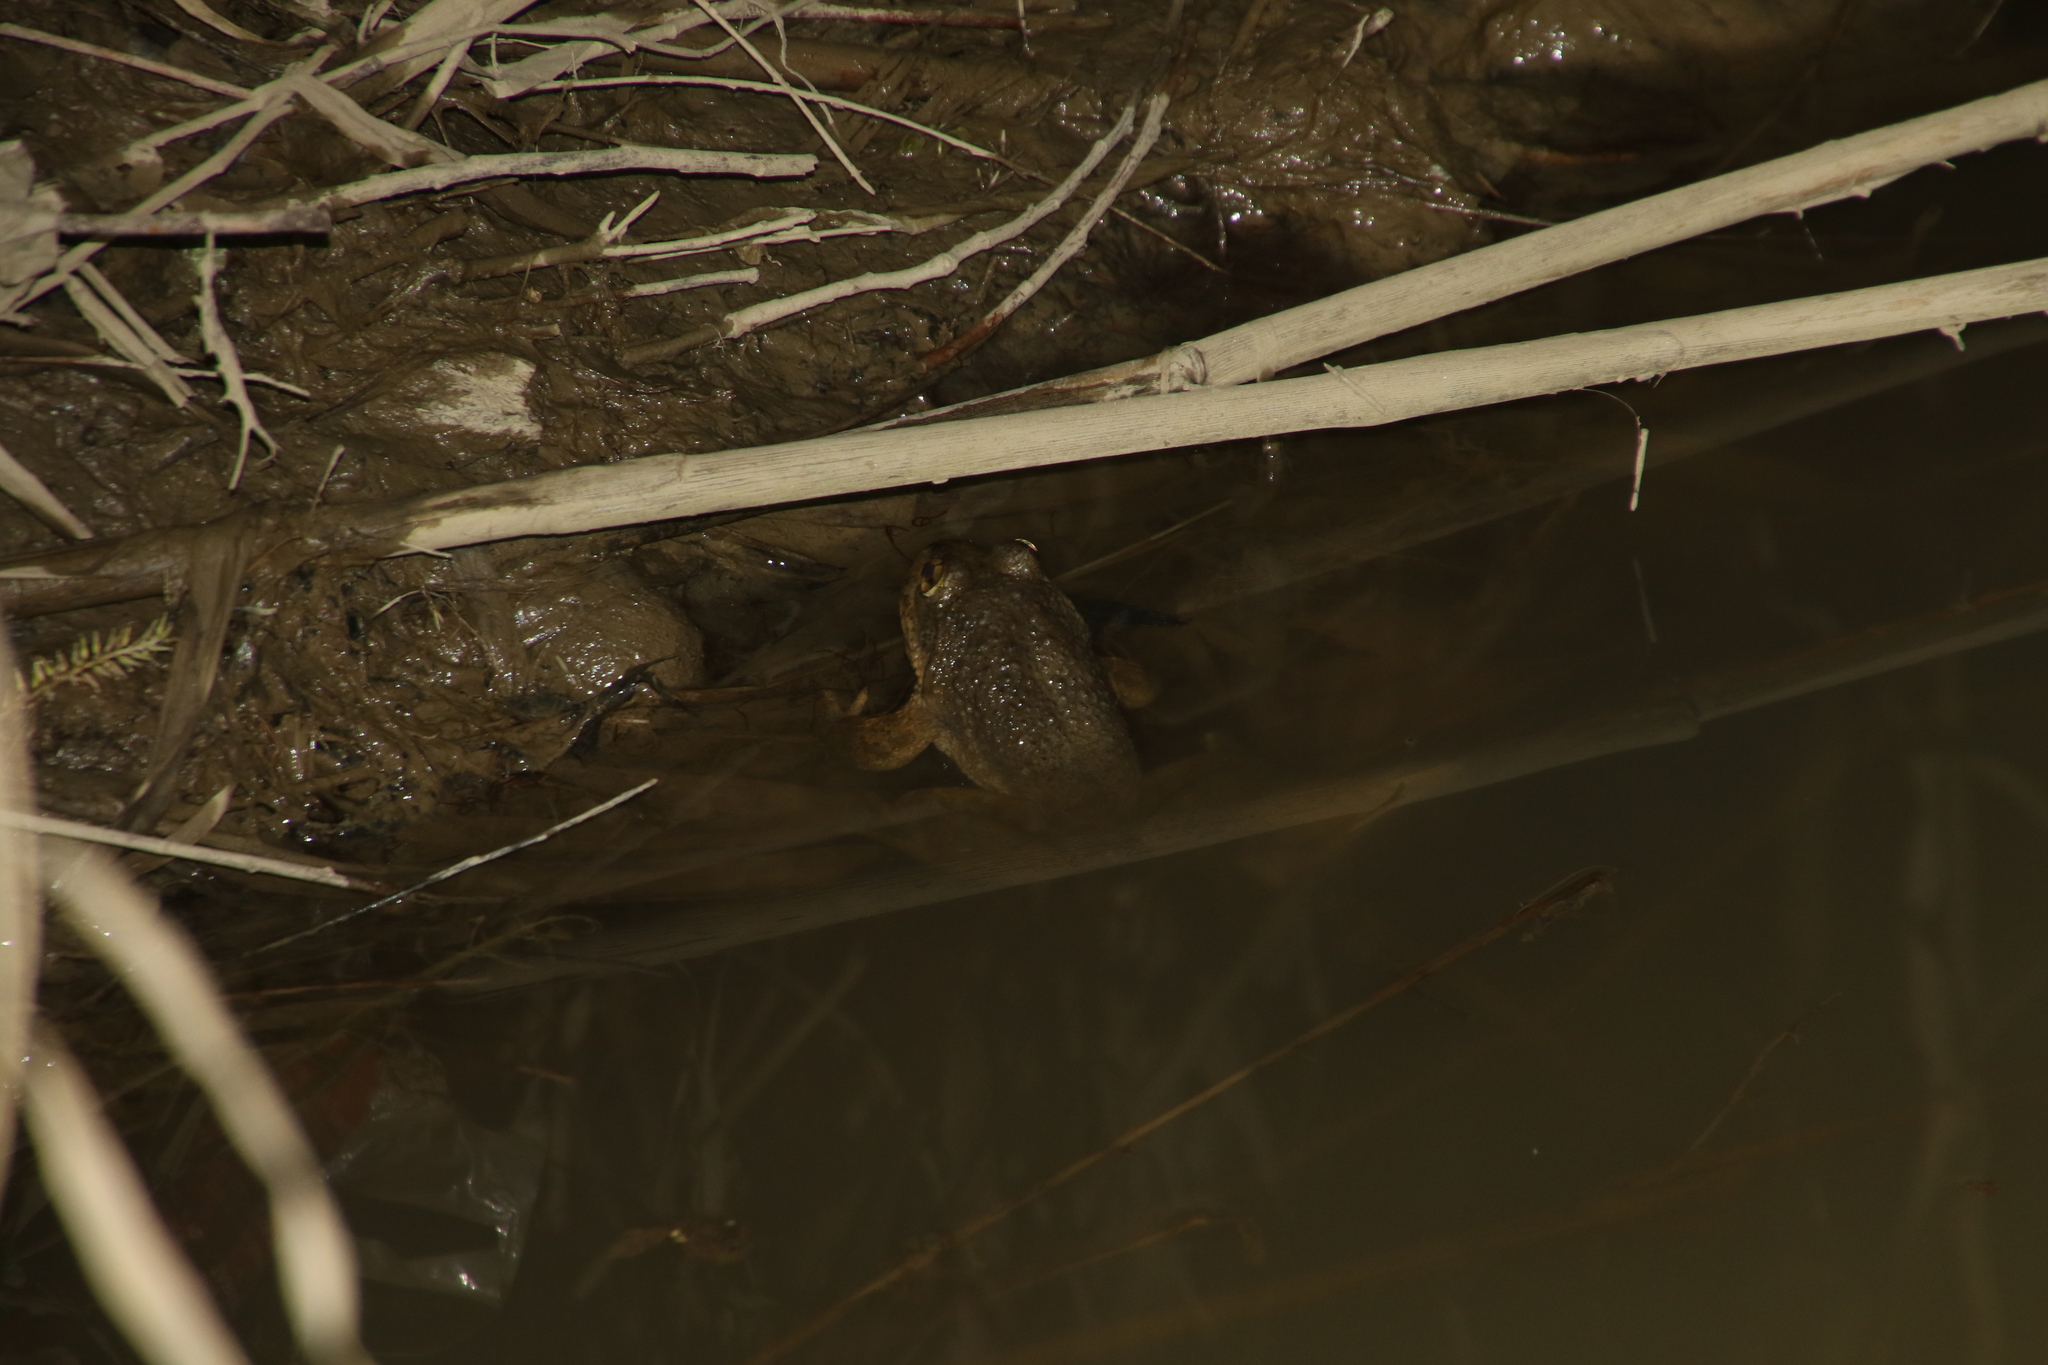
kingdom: Animalia
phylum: Chordata
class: Amphibia
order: Anura
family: Dicroglossidae
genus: Chrysopaa
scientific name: Chrysopaa sternosignata
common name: Murray's frog
